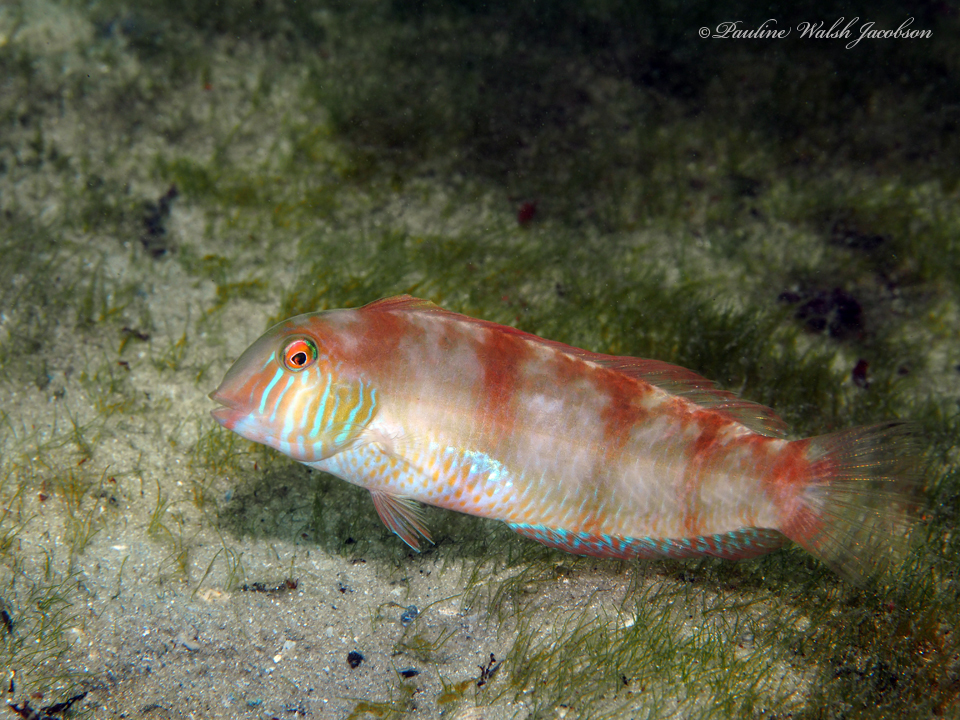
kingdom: Animalia
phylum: Chordata
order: Perciformes
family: Labridae
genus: Xyrichtys
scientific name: Xyrichtys novacula
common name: Pearly razorfish
